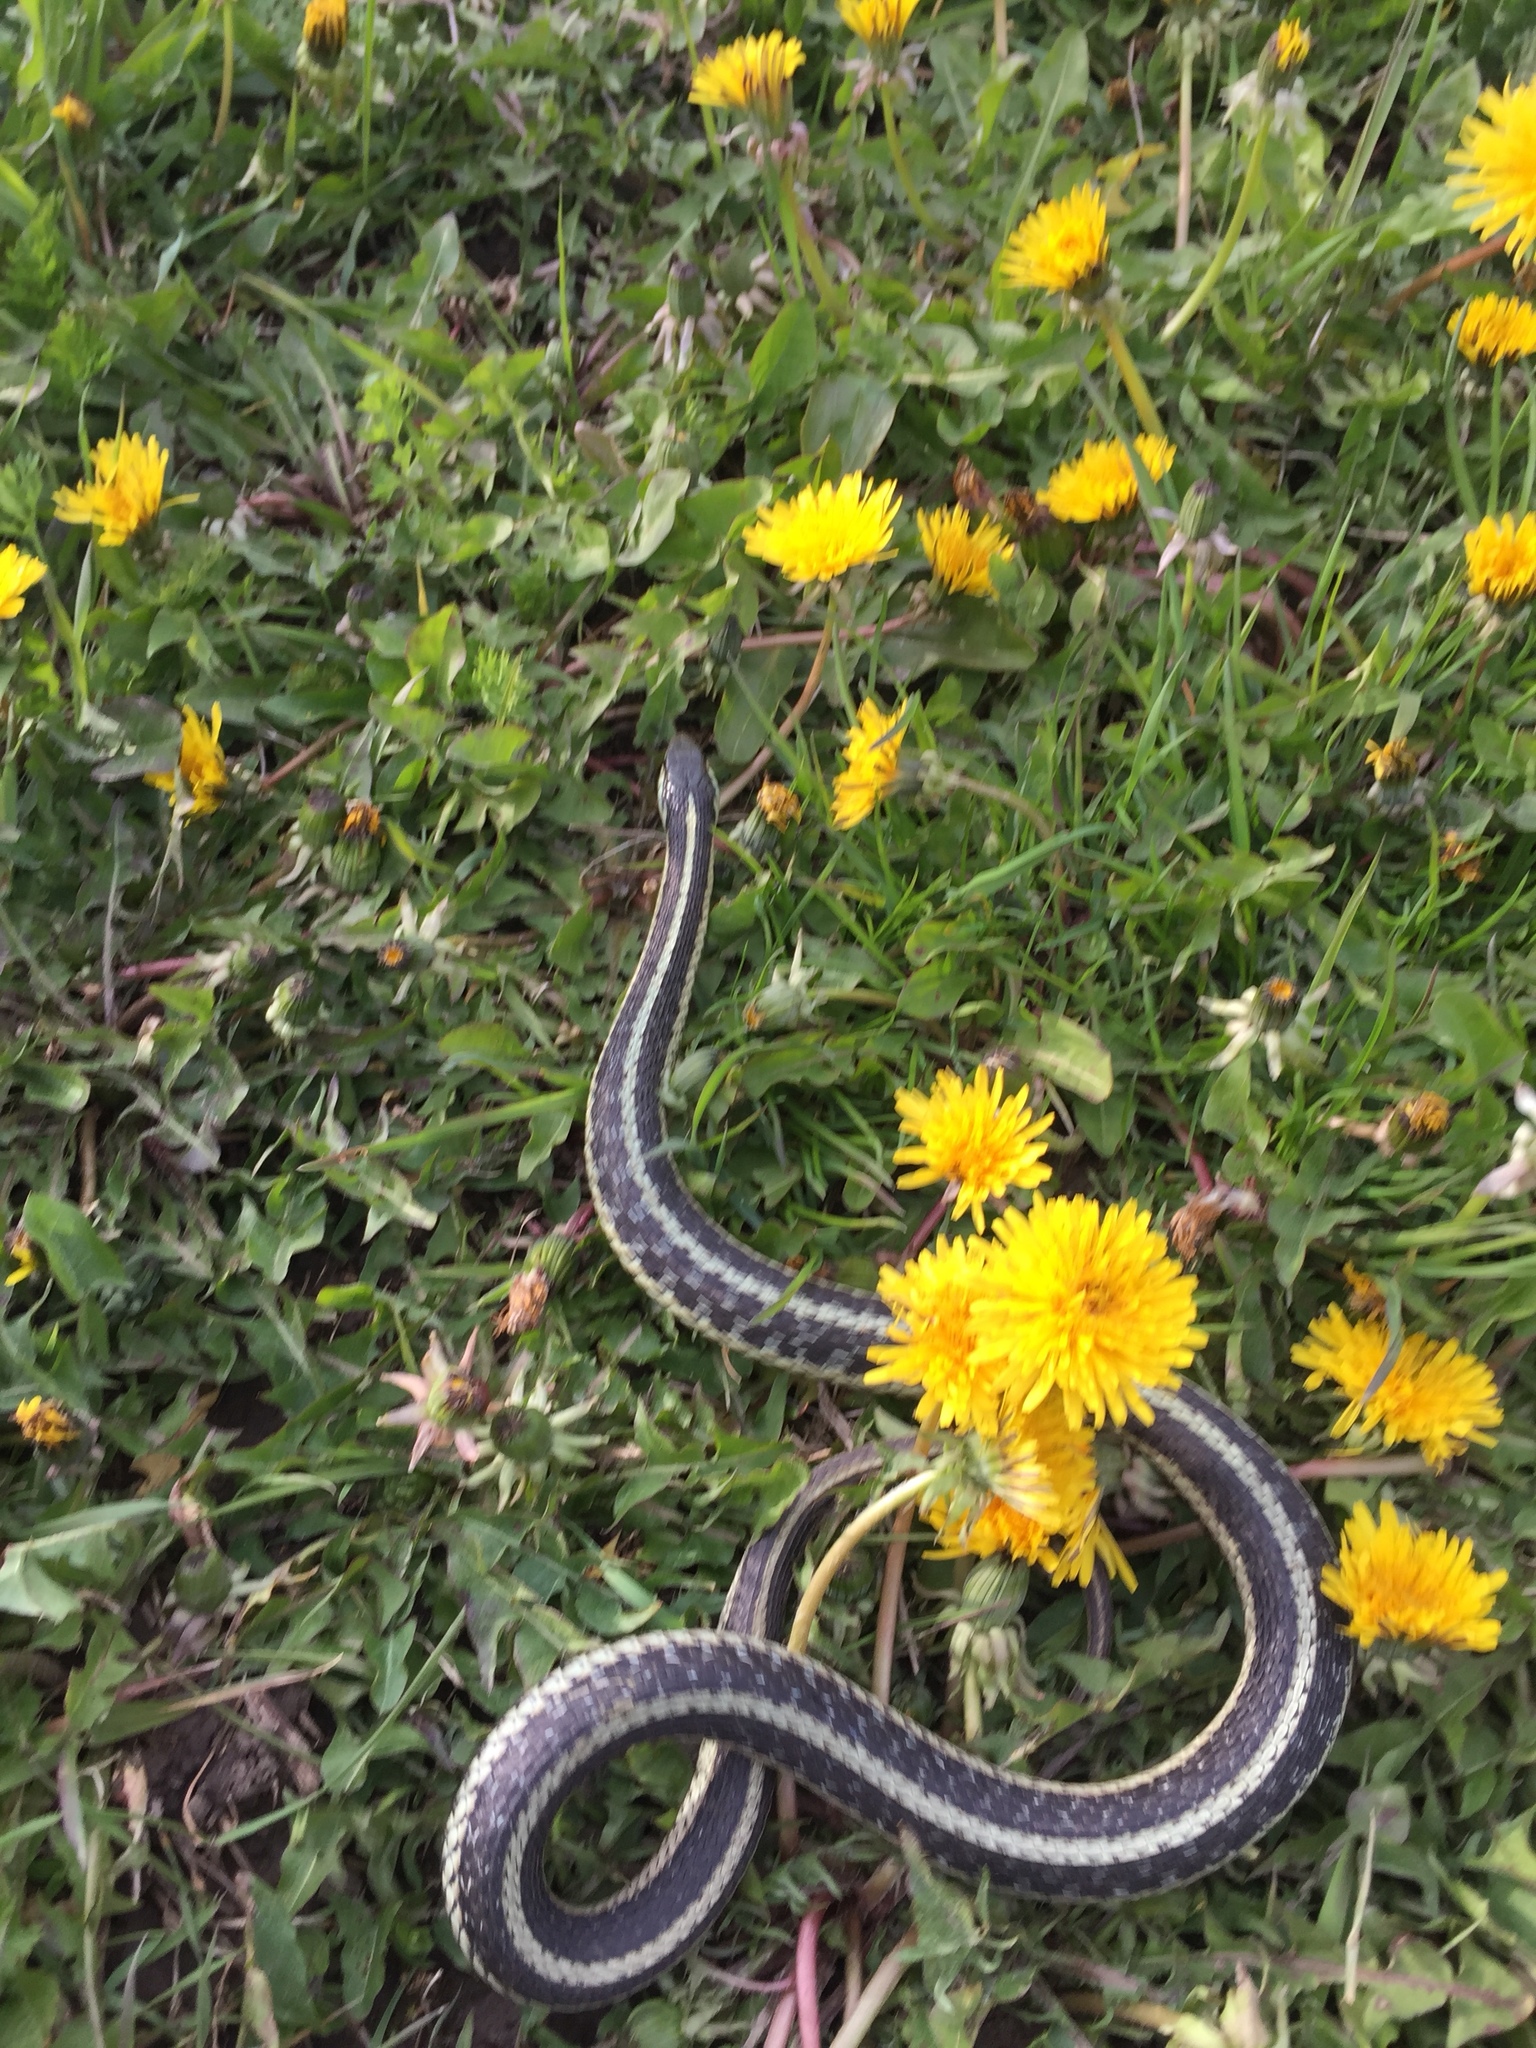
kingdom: Animalia
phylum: Chordata
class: Squamata
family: Colubridae
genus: Thamnophis
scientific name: Thamnophis sirtalis
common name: Common garter snake
